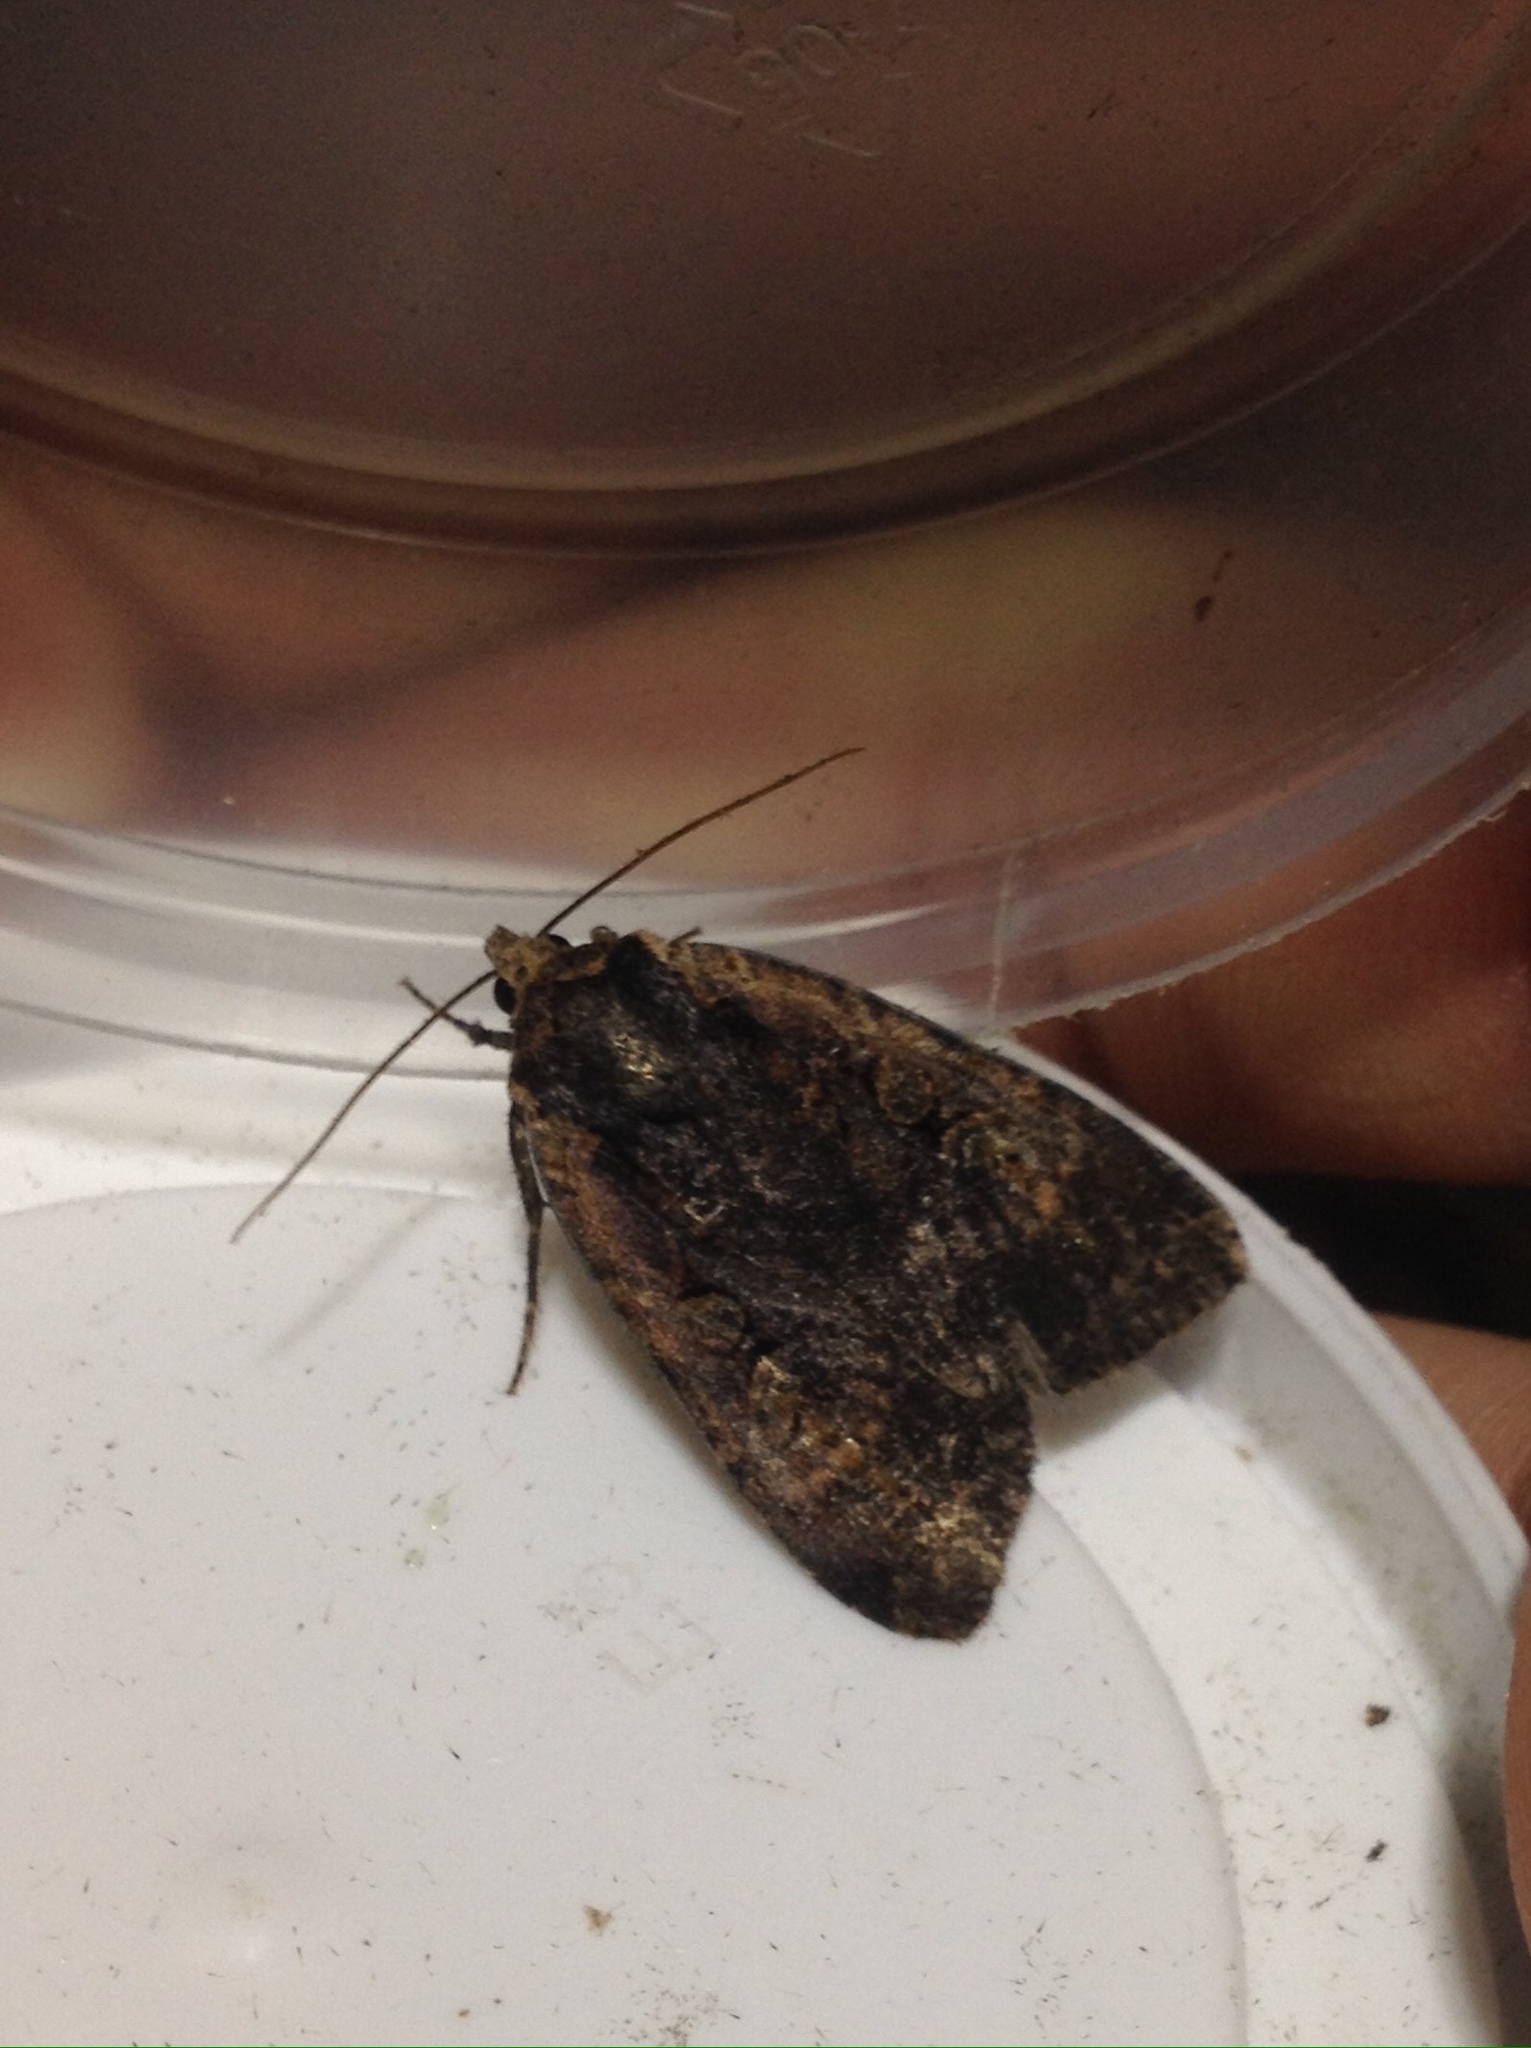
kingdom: Animalia
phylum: Arthropoda
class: Insecta
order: Lepidoptera
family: Noctuidae
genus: Eugraphe
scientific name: Eugraphe sigma
